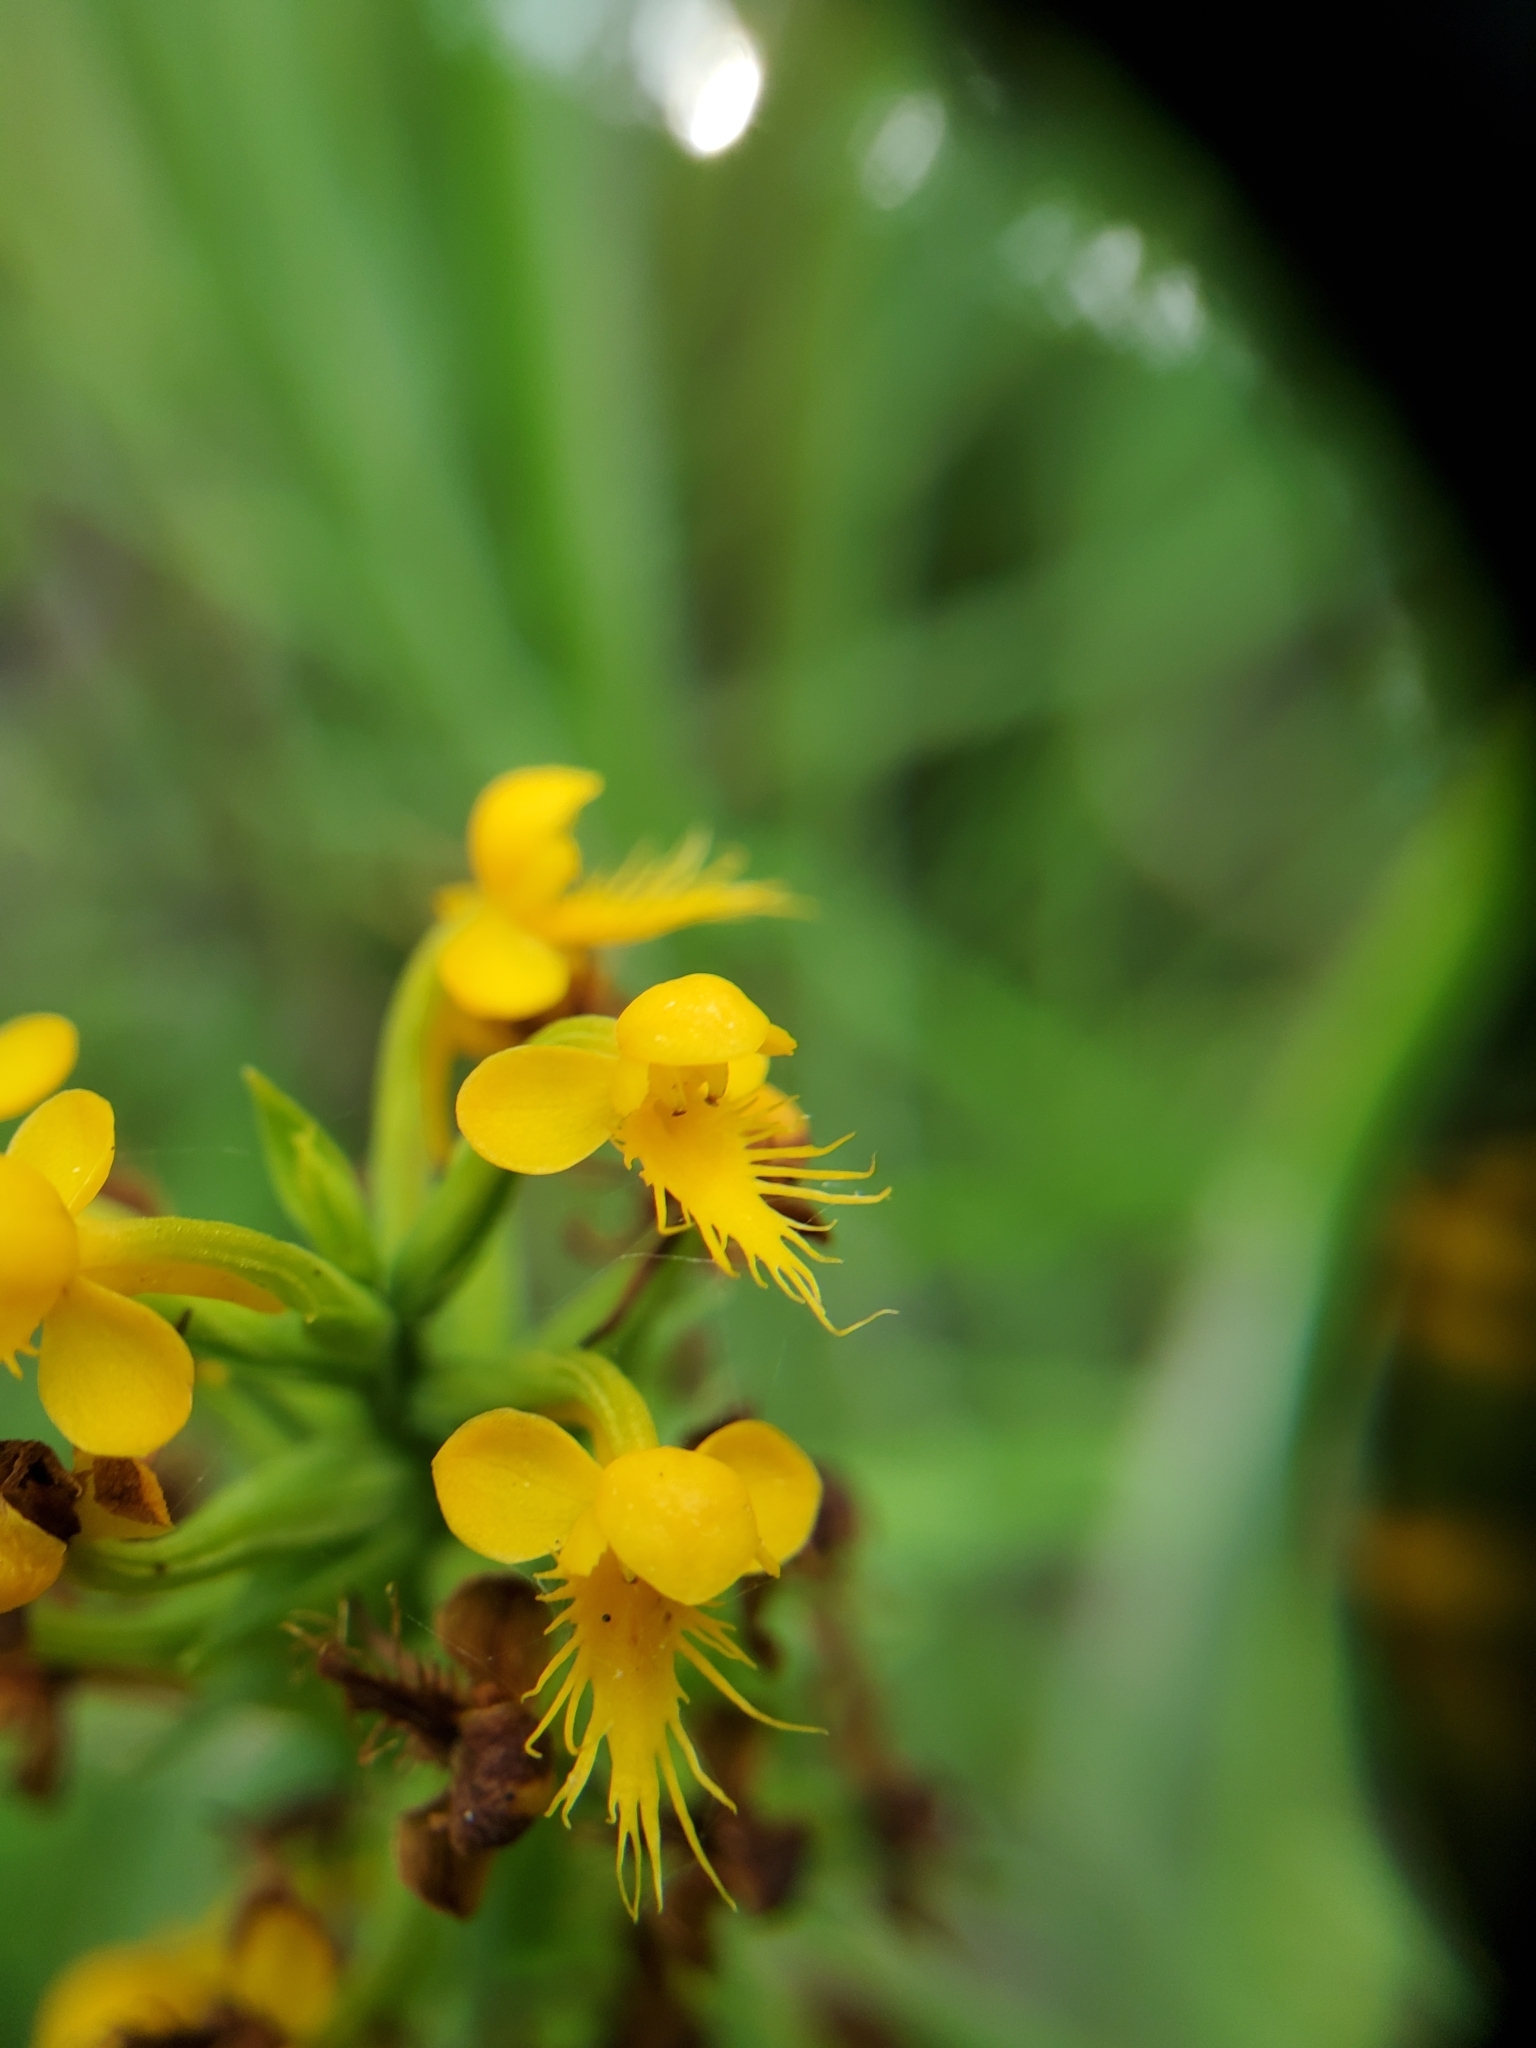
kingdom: Plantae
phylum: Tracheophyta
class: Liliopsida
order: Asparagales
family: Orchidaceae
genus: Platanthera
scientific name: Platanthera cristata
